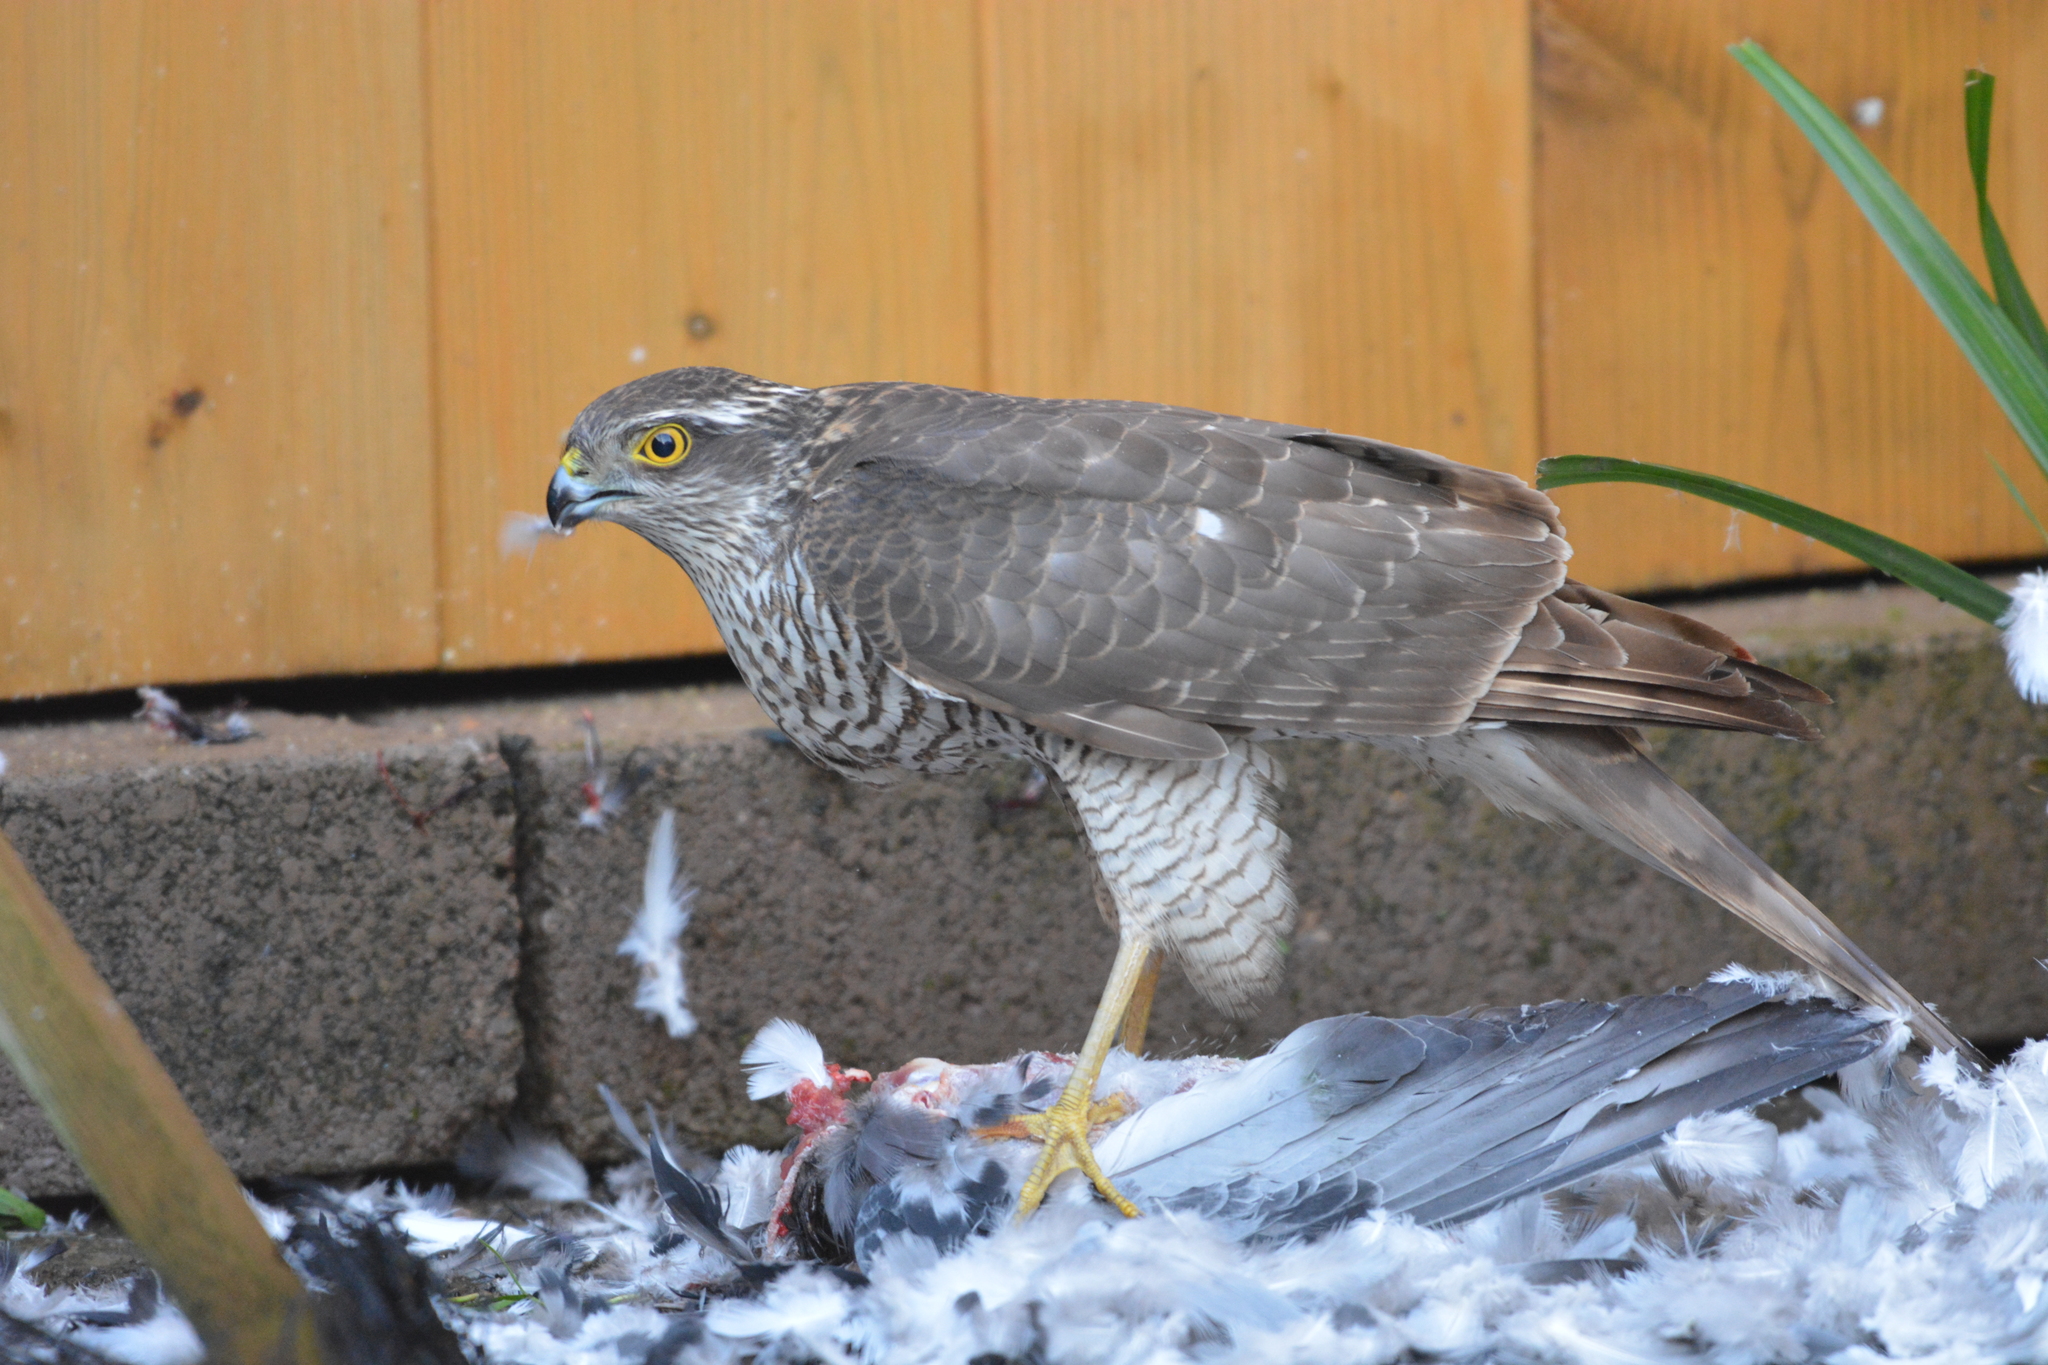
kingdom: Animalia
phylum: Chordata
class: Aves
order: Accipitriformes
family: Accipitridae
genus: Accipiter
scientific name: Accipiter nisus
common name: Eurasian sparrowhawk
